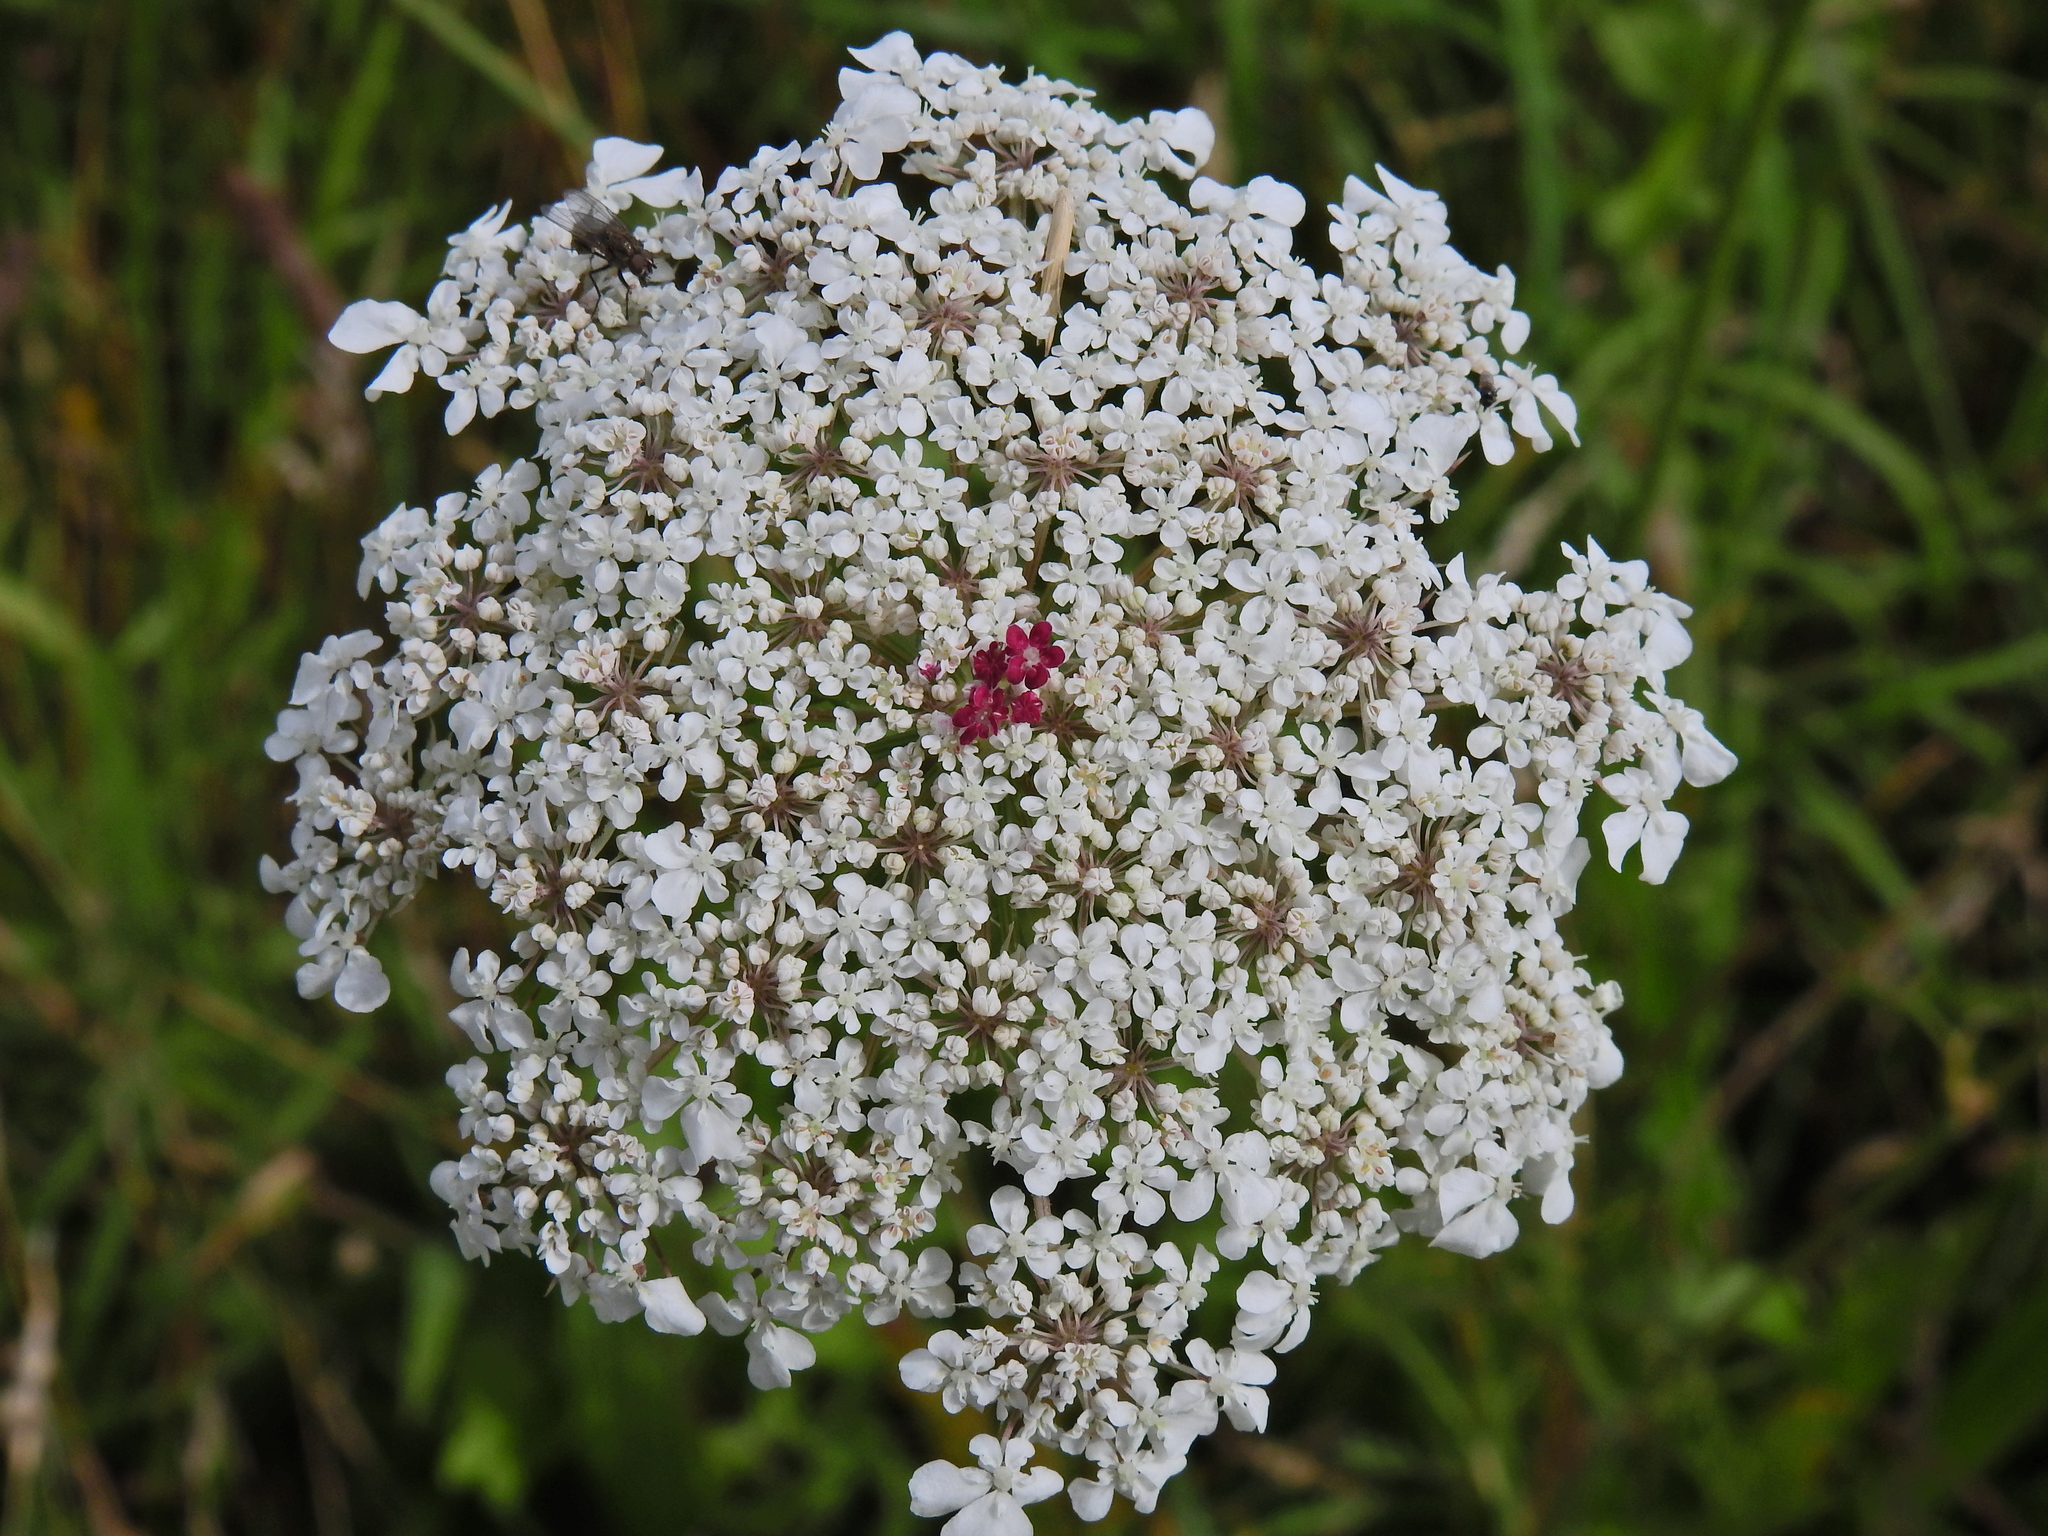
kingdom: Plantae
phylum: Tracheophyta
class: Magnoliopsida
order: Apiales
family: Apiaceae
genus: Daucus
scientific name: Daucus carota
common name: Wild carrot
